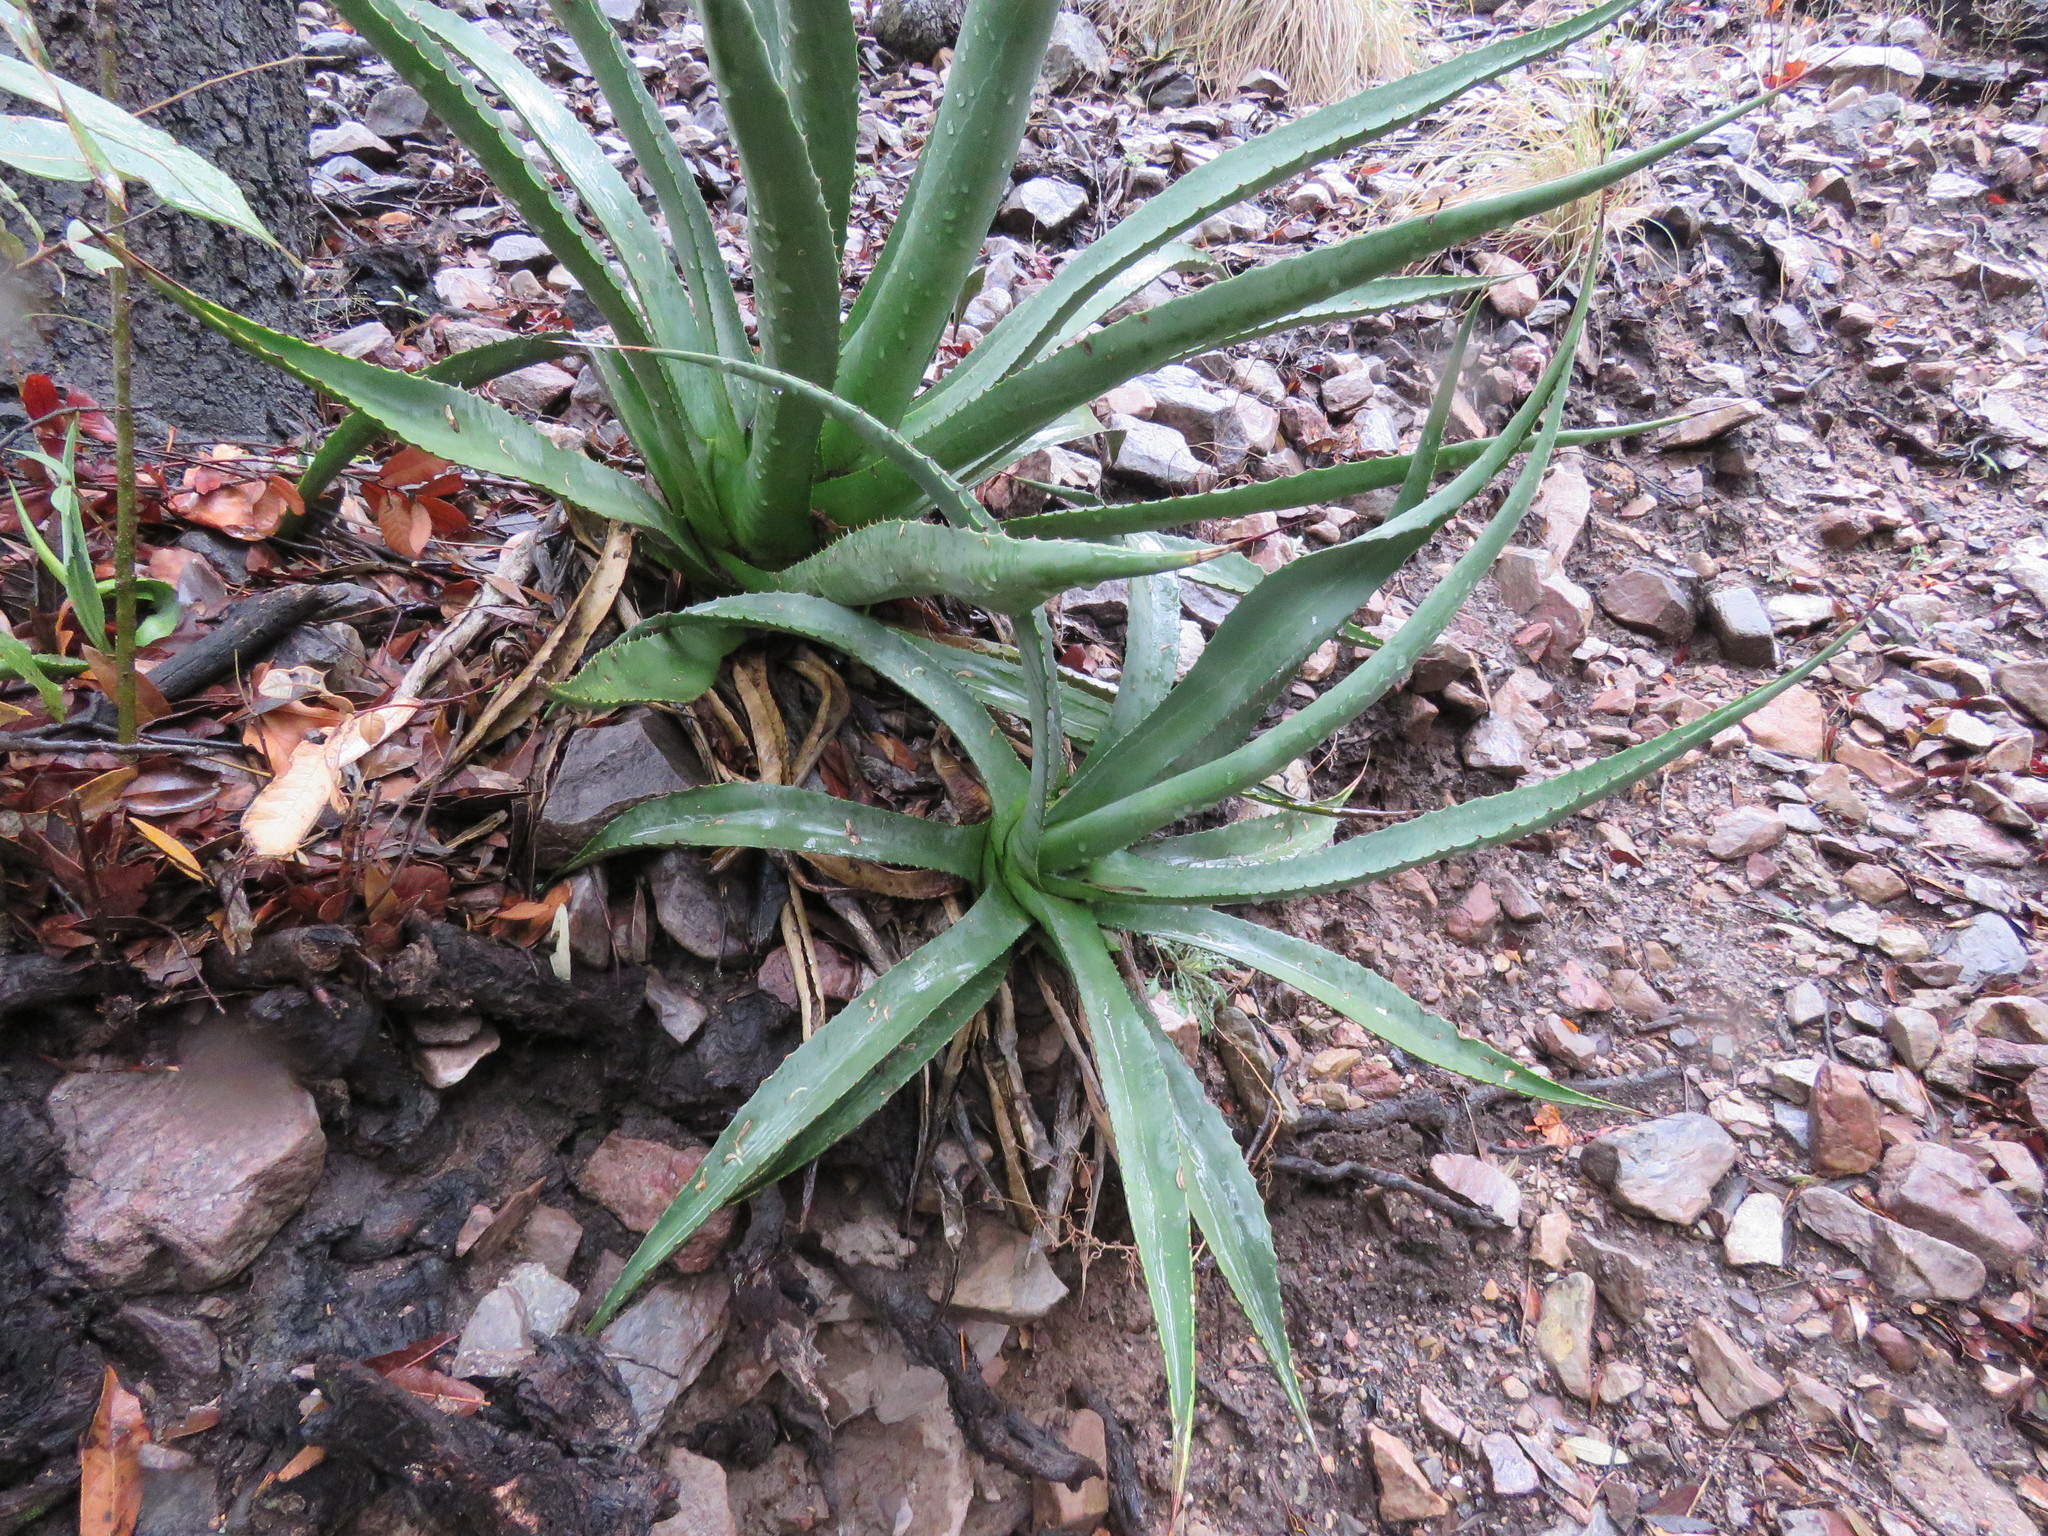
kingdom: Plantae
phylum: Tracheophyta
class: Liliopsida
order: Asparagales
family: Asparagaceae
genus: Agave
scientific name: Agave palmeri
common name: Palmer agave
